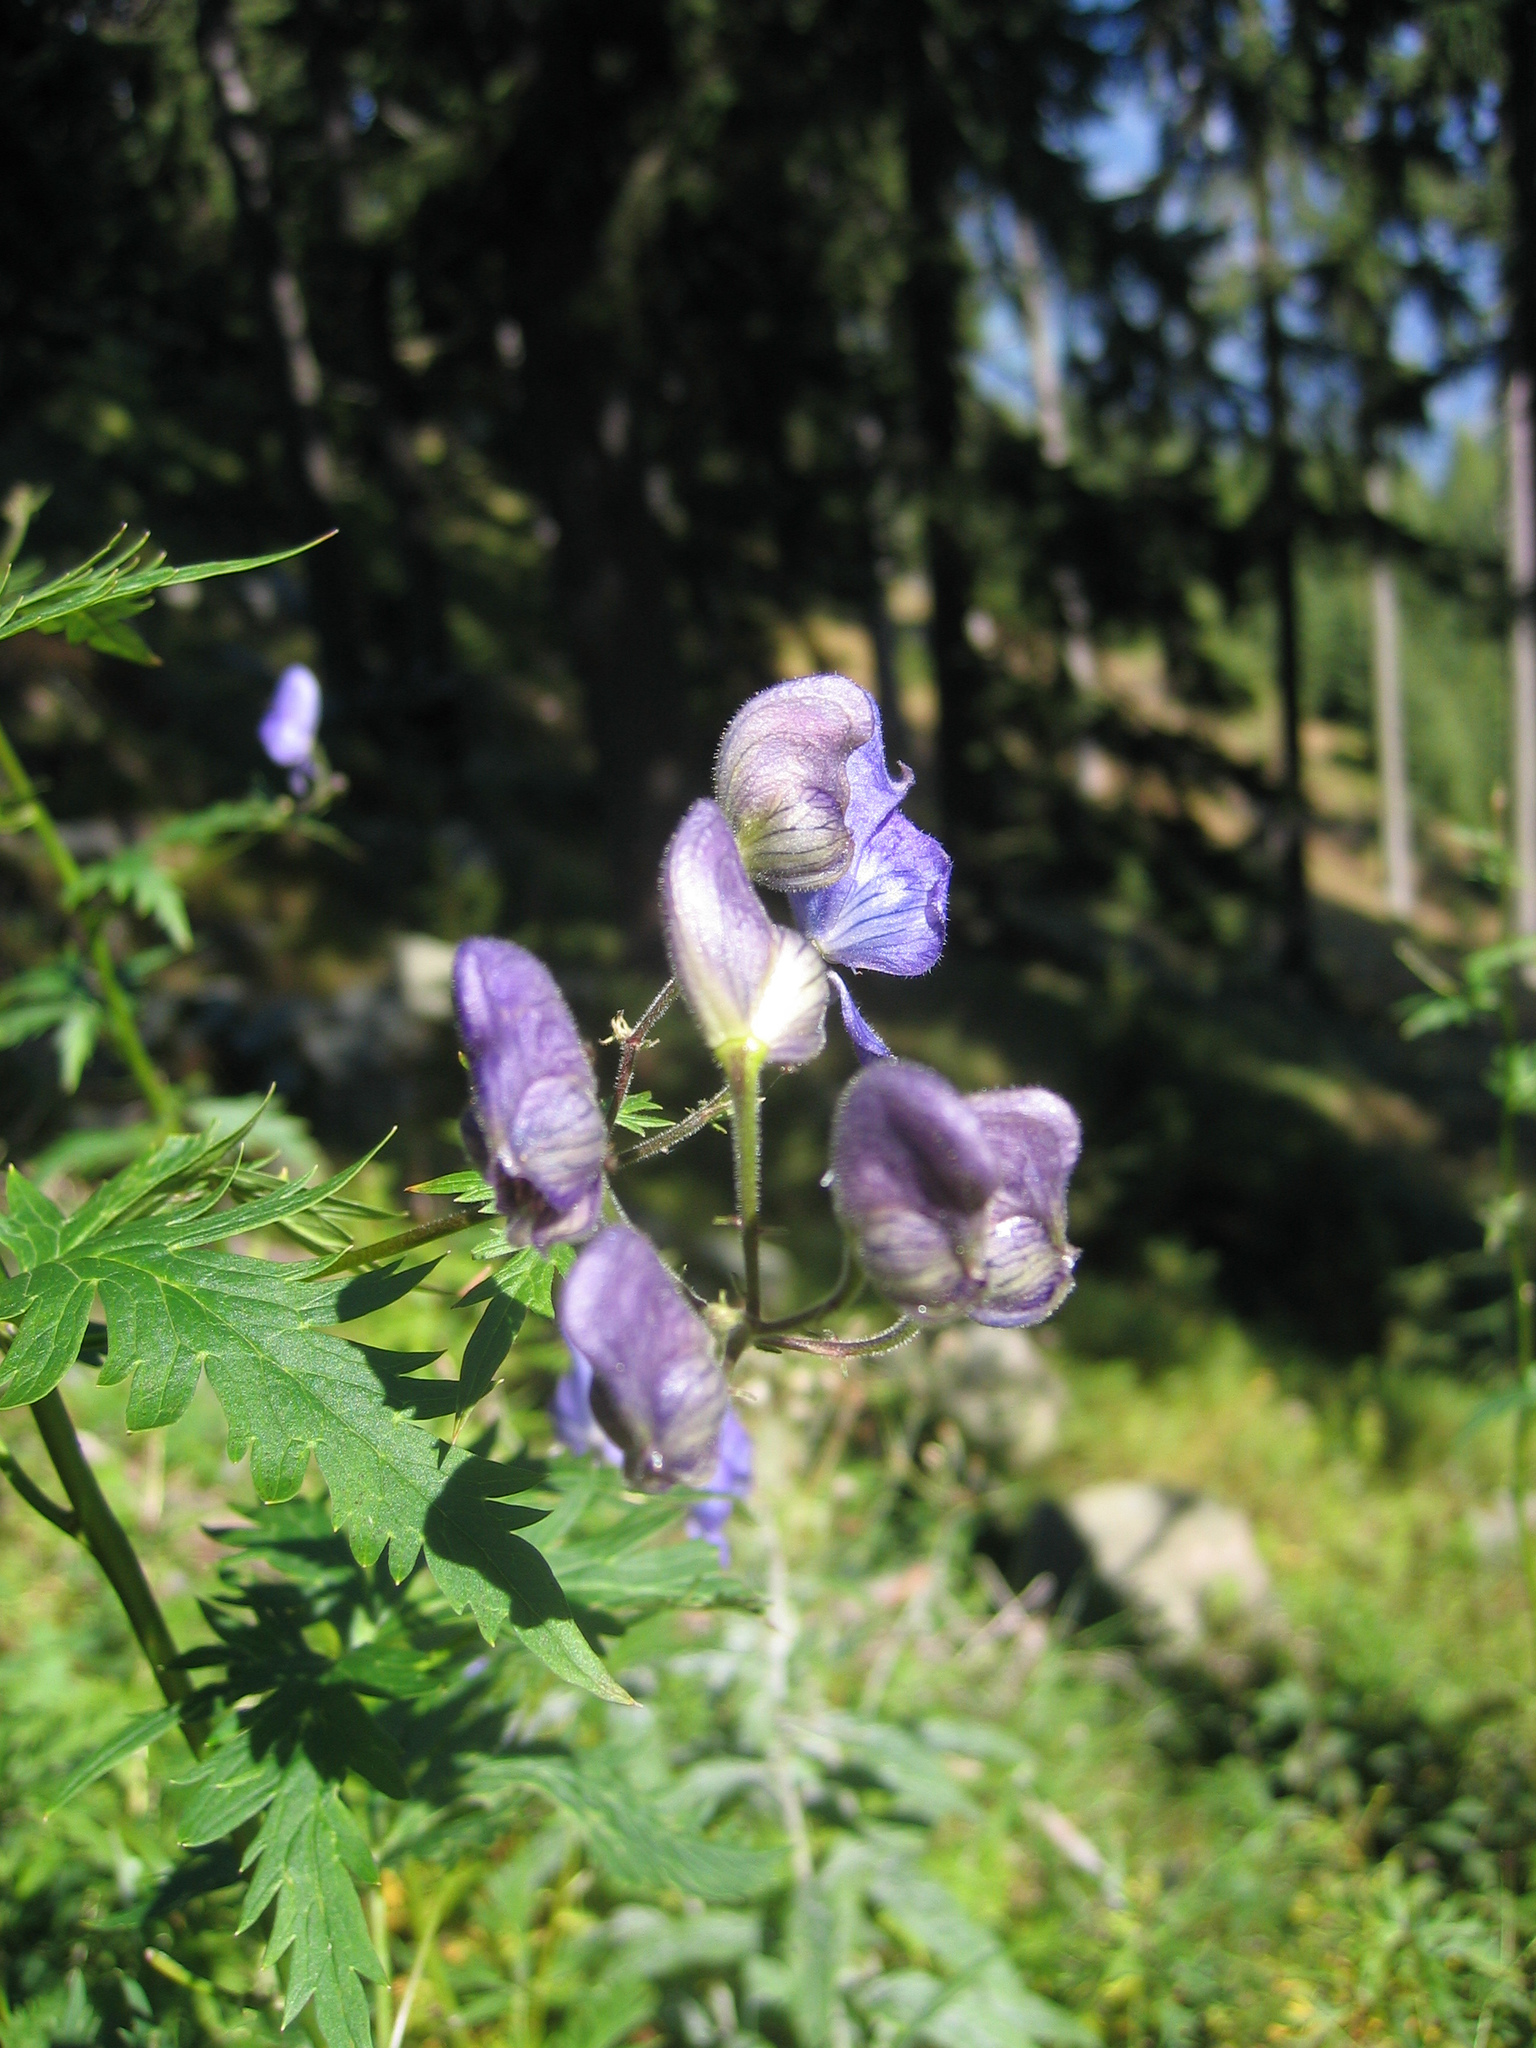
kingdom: Plantae
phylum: Tracheophyta
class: Magnoliopsida
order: Ranunculales
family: Ranunculaceae
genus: Aconitum
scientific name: Aconitum degenii
